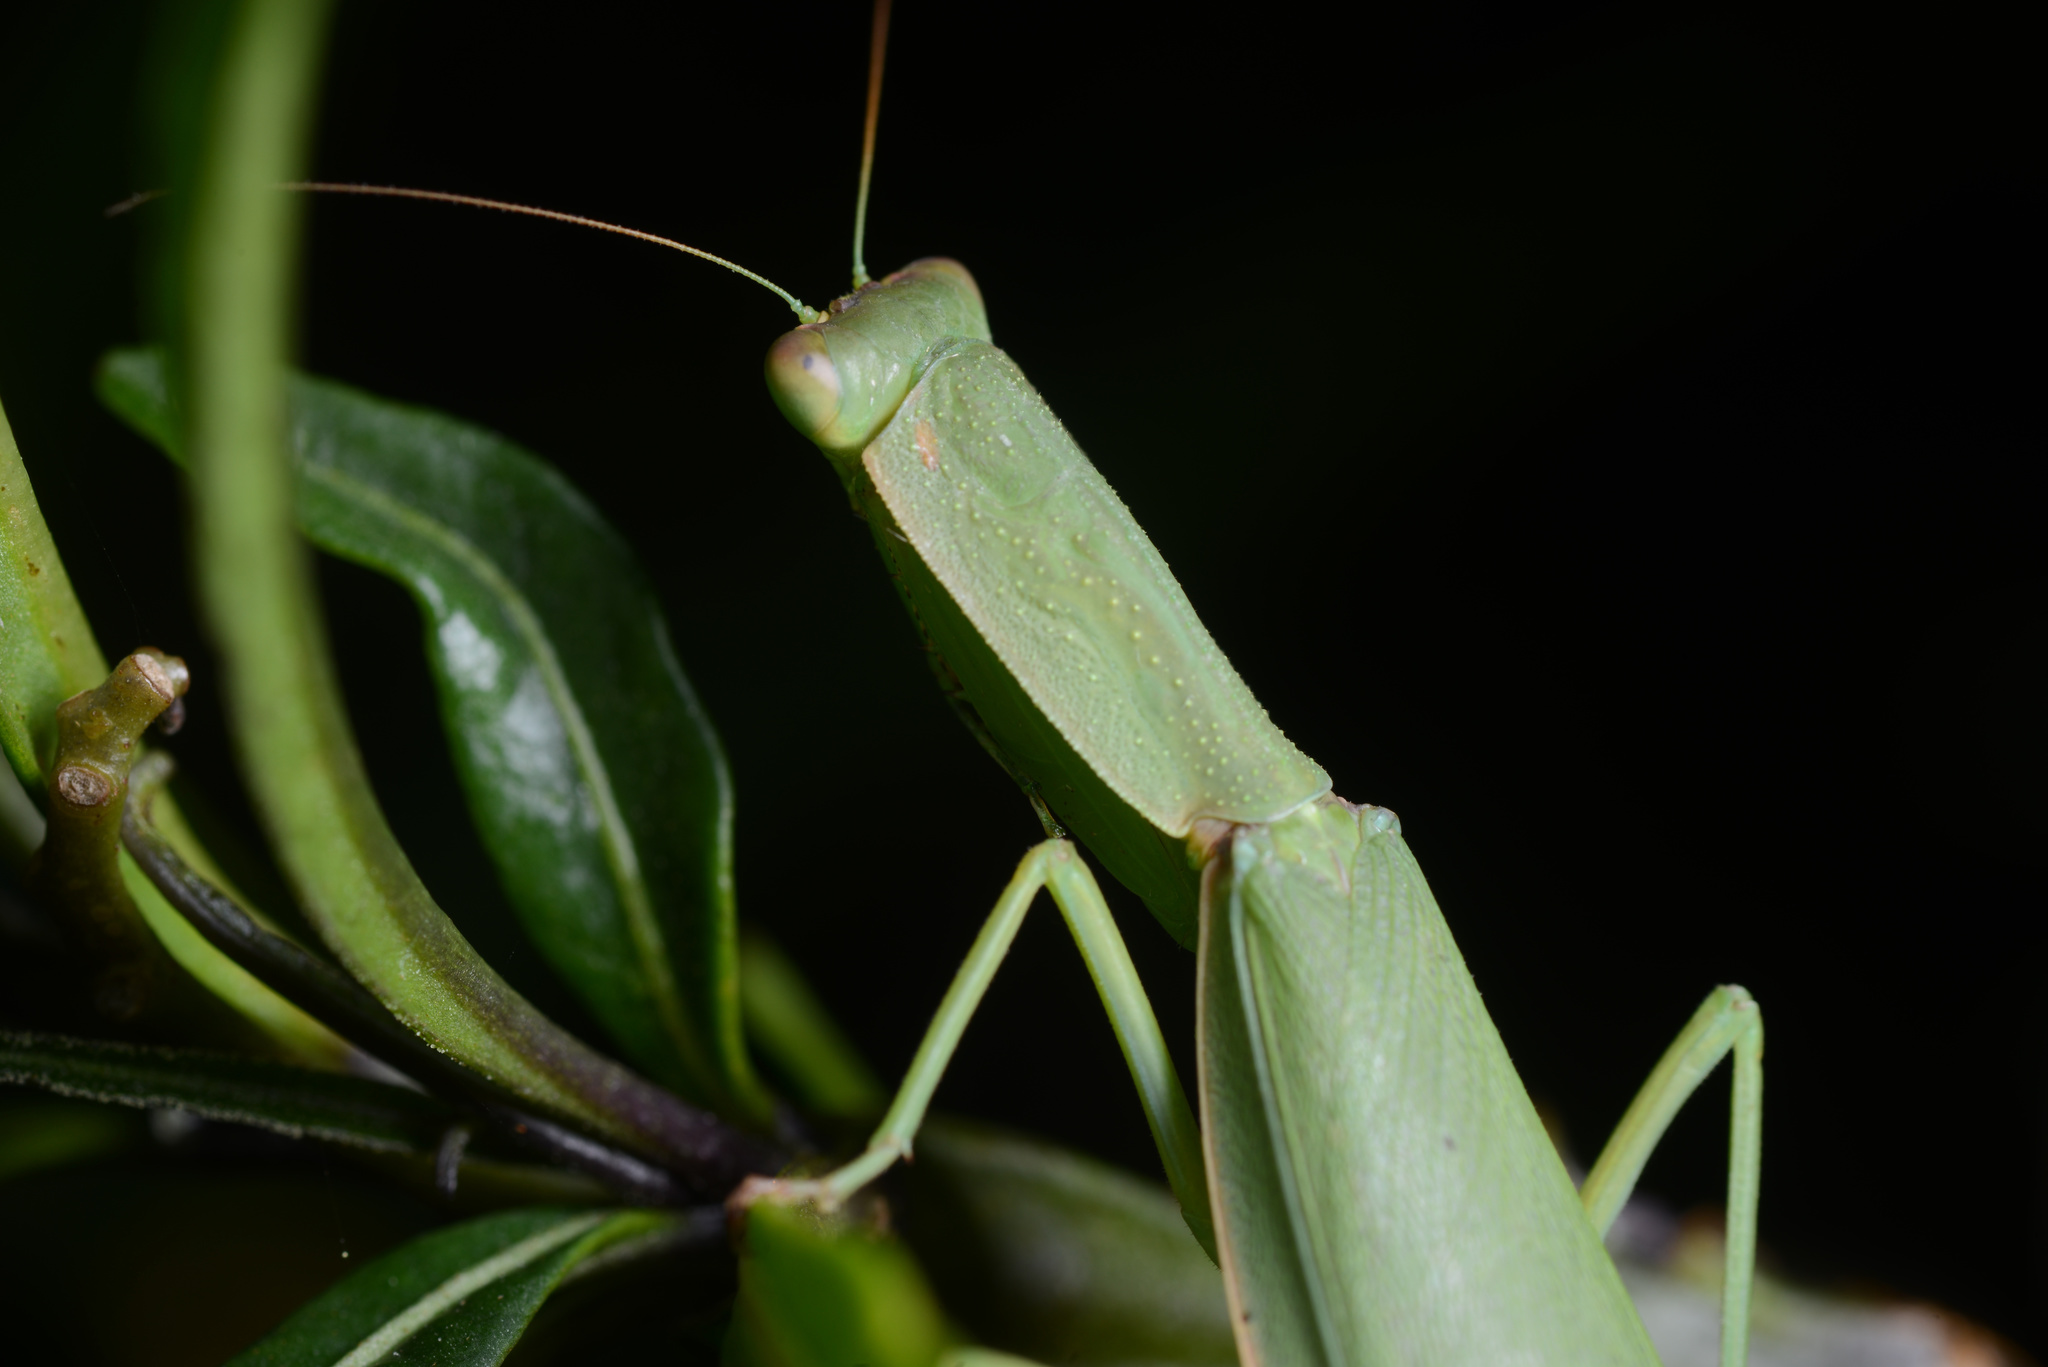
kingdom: Animalia
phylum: Arthropoda
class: Insecta
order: Mantodea
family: Mantidae
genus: Orthodera
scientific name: Orthodera novaezealandiae
